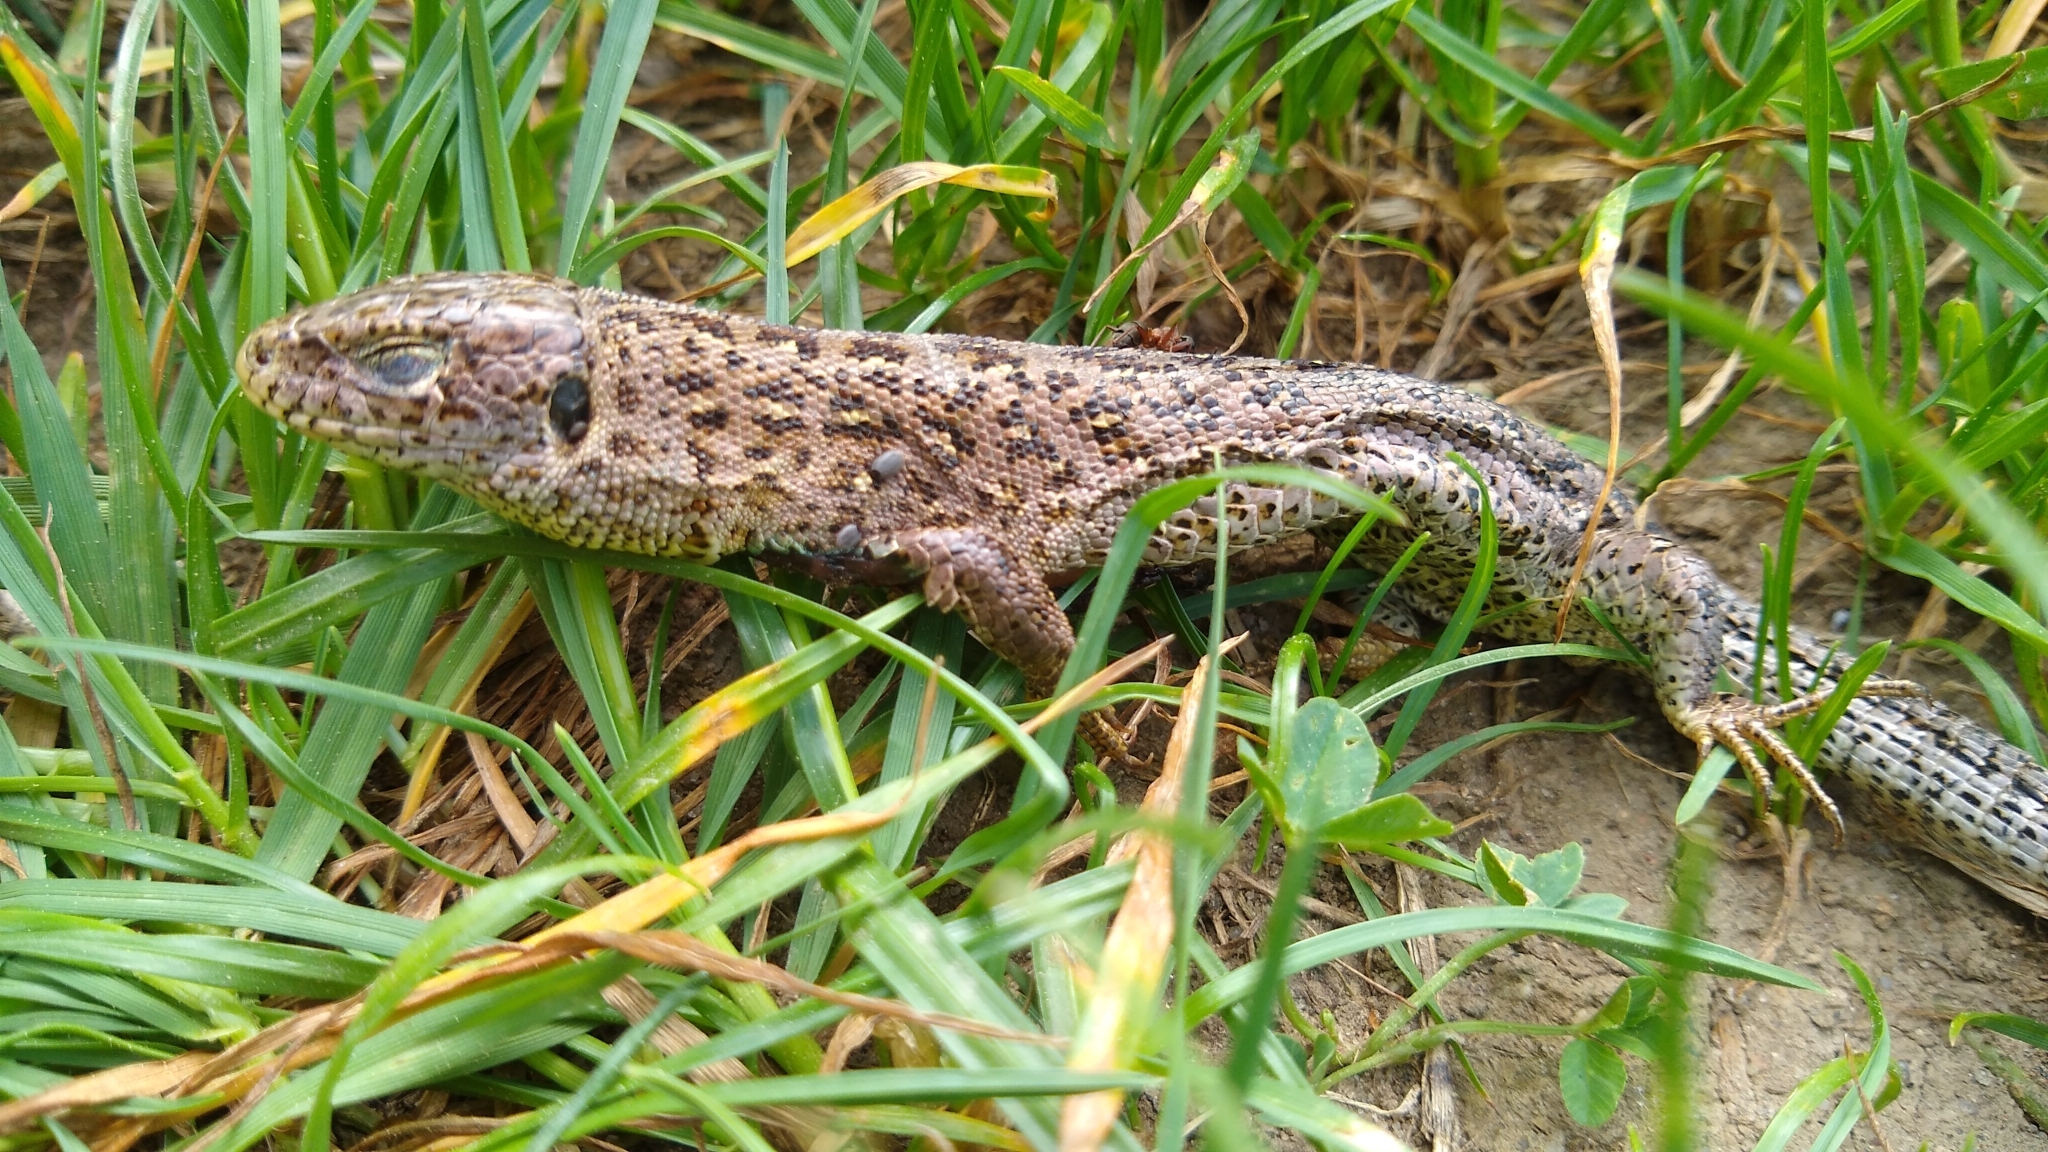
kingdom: Animalia
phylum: Chordata
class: Squamata
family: Lacertidae
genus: Lacerta
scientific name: Lacerta agilis
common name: Sand lizard
